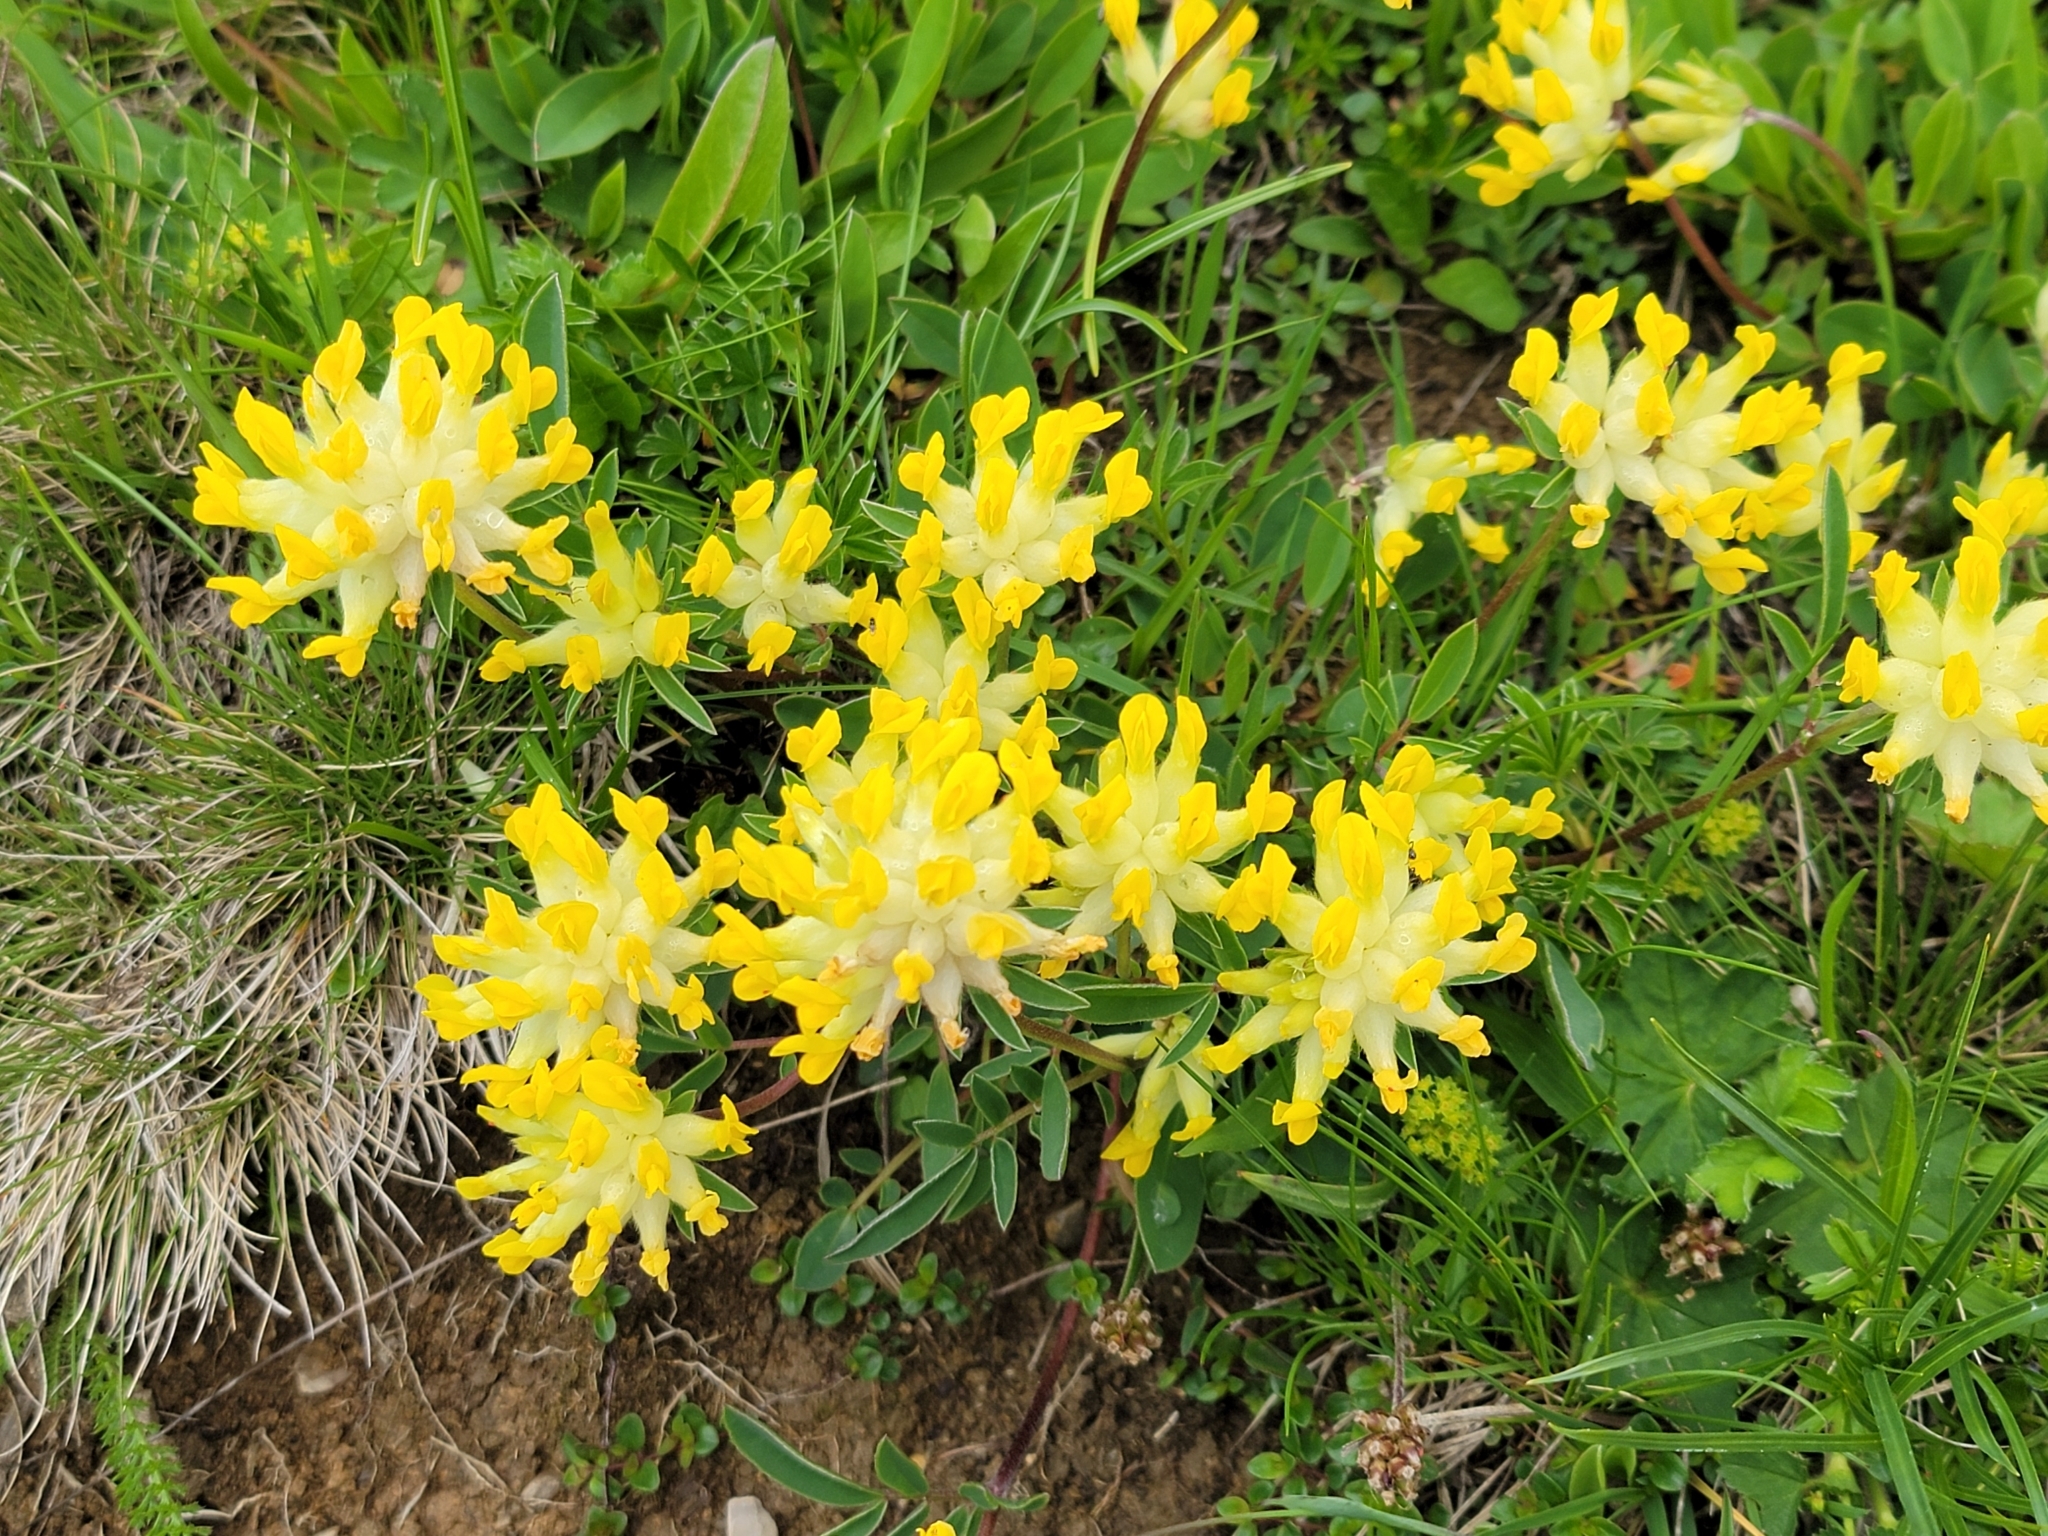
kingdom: Plantae
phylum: Tracheophyta
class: Magnoliopsida
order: Fabales
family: Fabaceae
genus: Anthyllis
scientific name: Anthyllis vulneraria
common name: Kidney vetch
